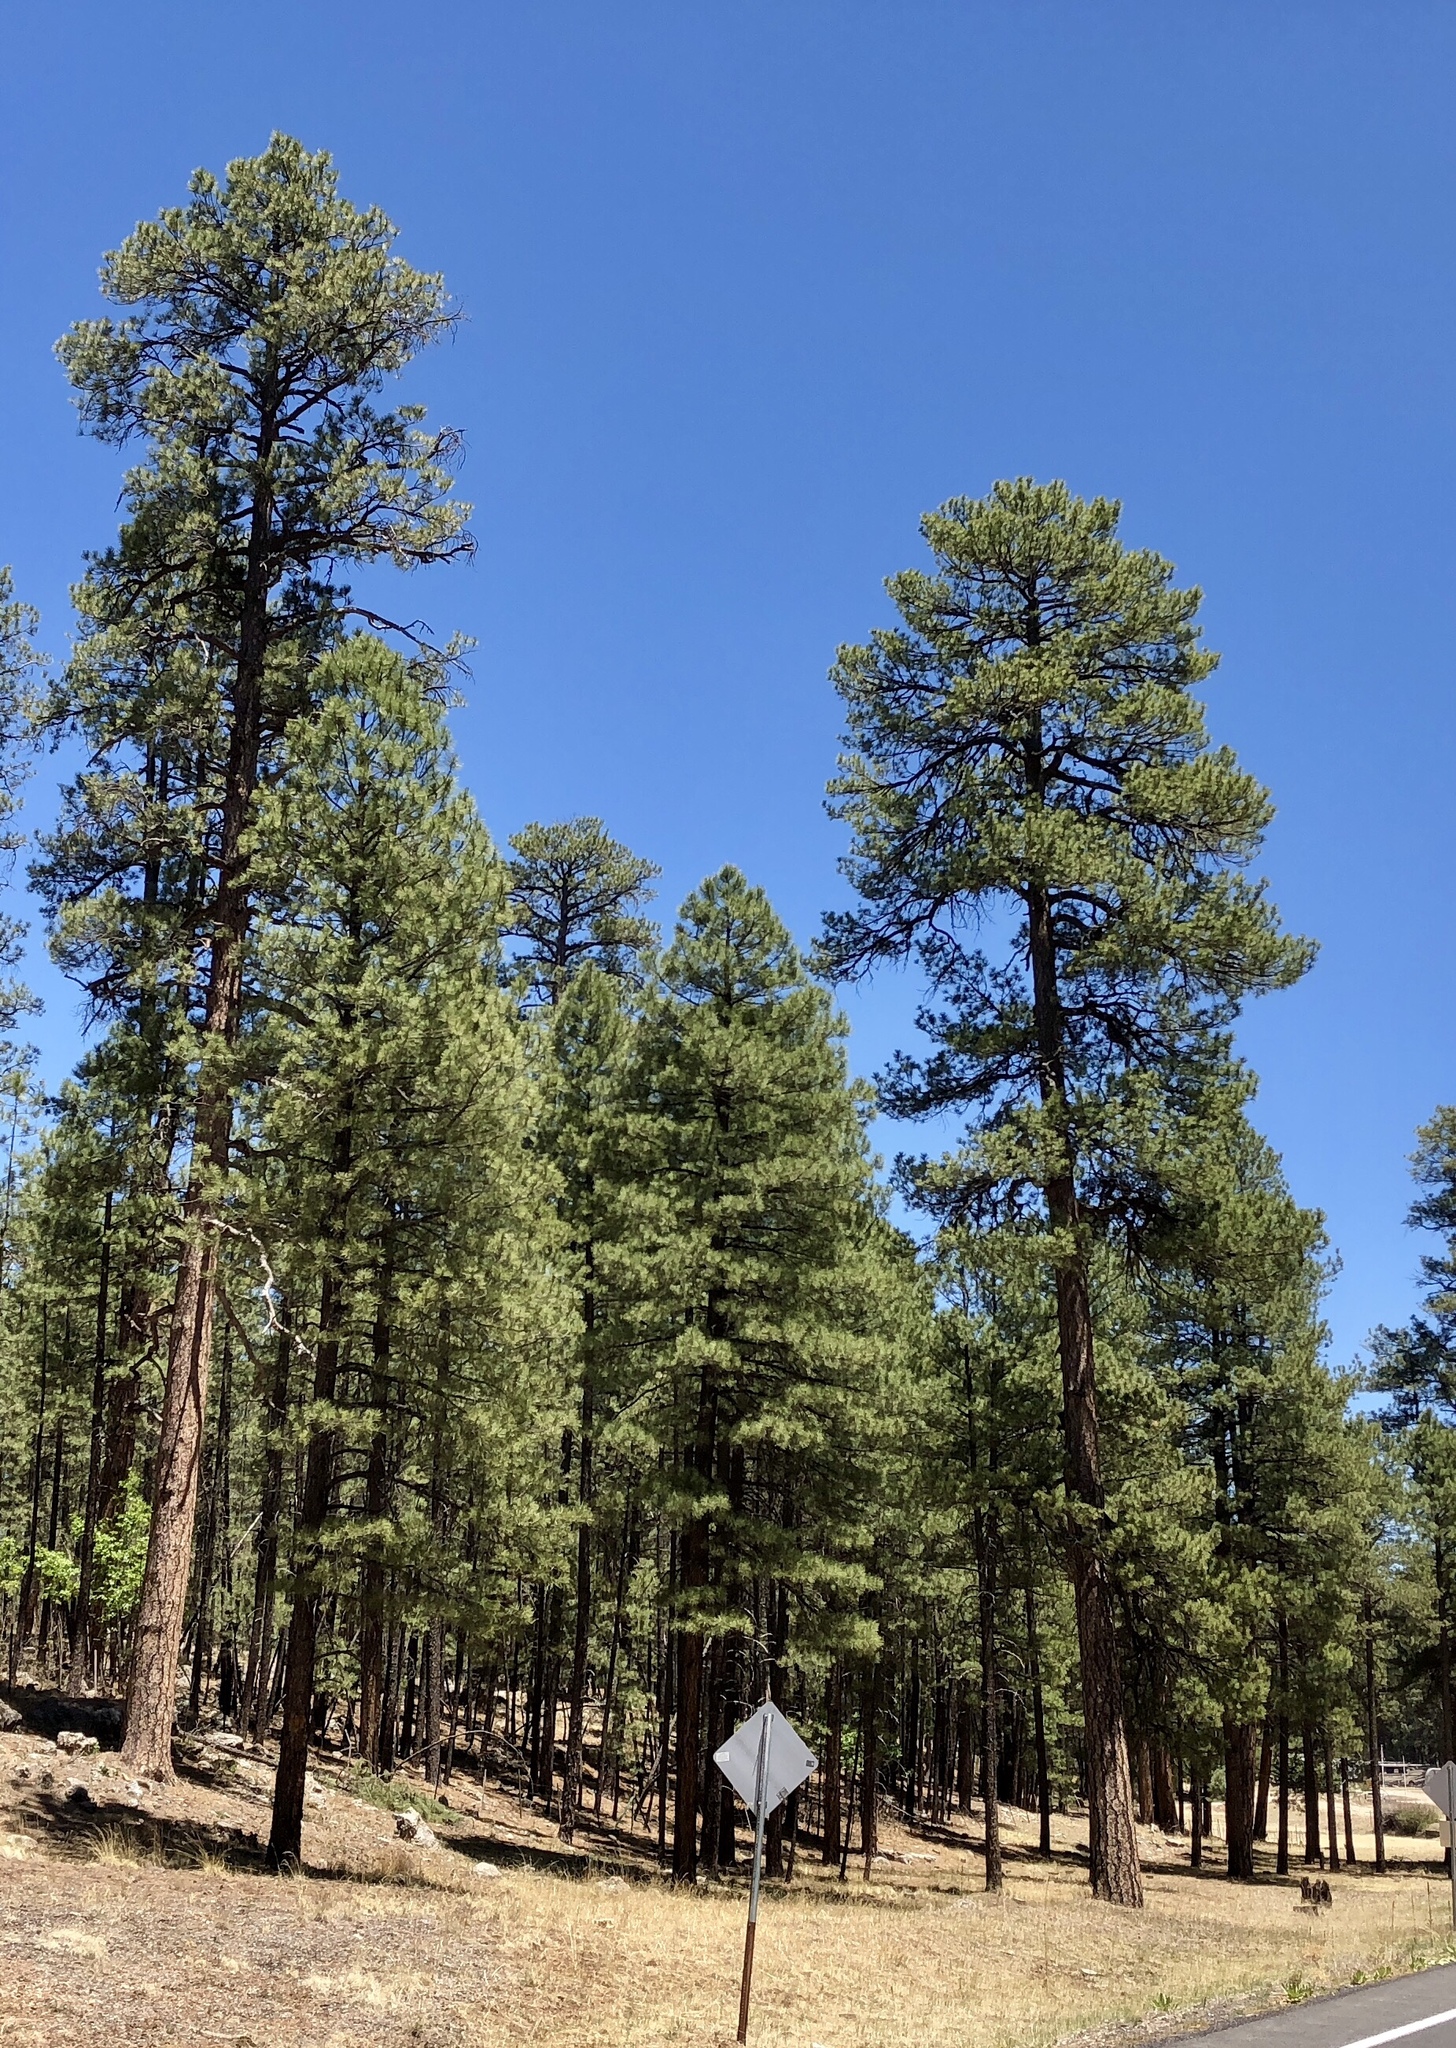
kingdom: Plantae
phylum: Tracheophyta
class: Pinopsida
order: Pinales
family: Pinaceae
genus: Pinus
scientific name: Pinus ponderosa
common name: Western yellow-pine
